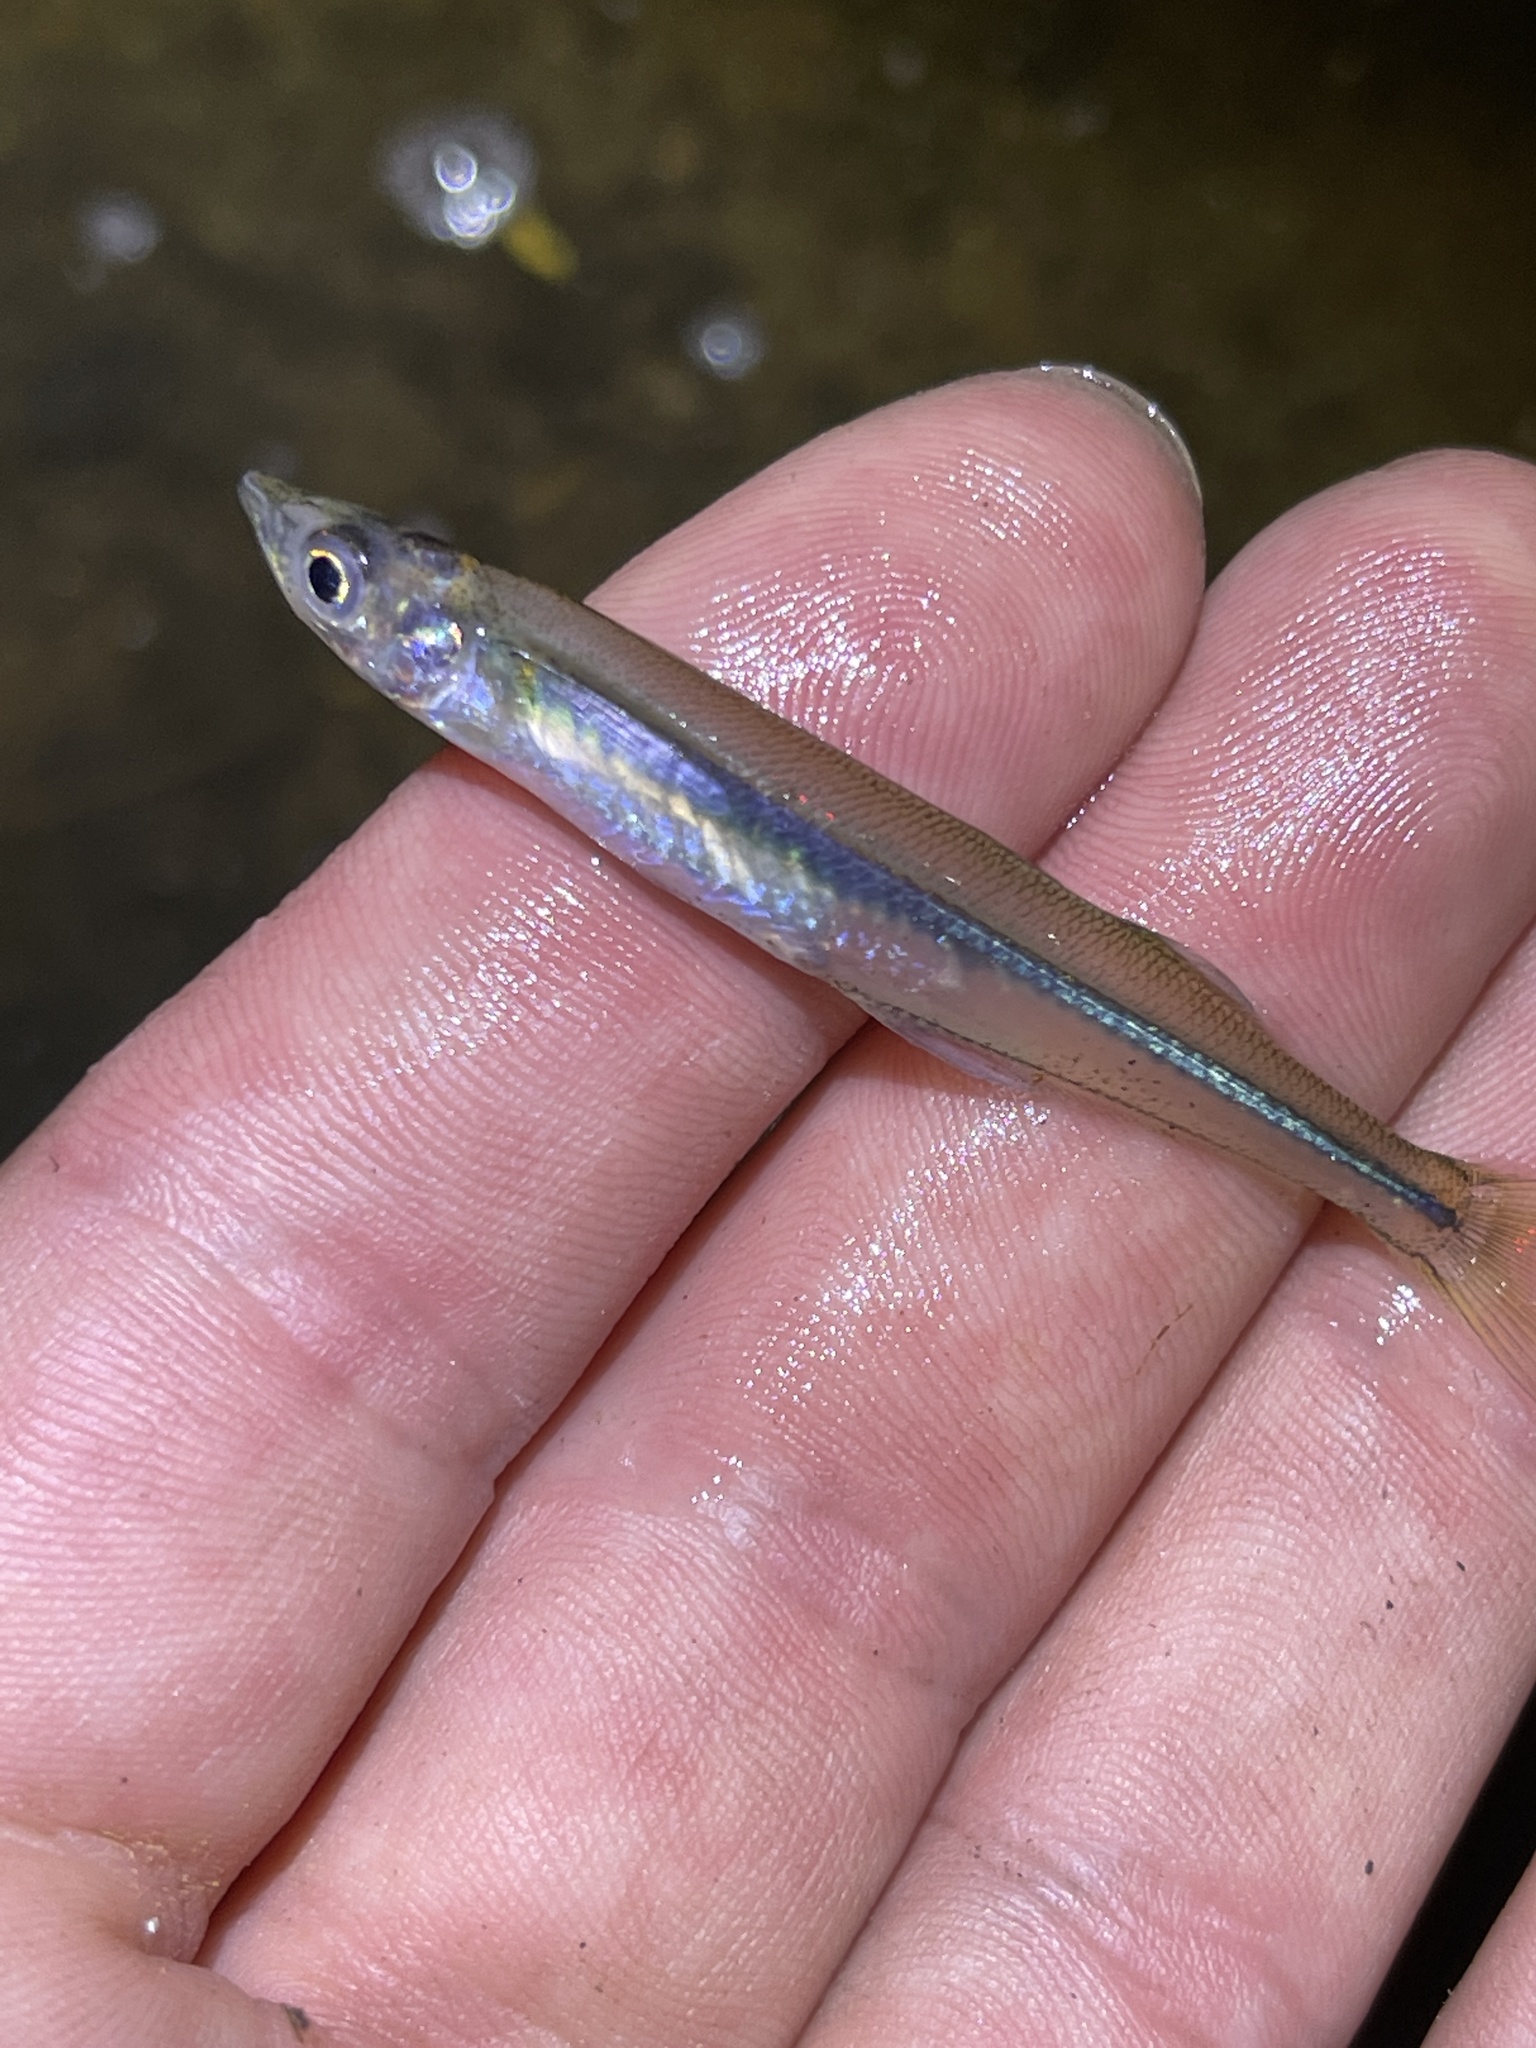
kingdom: Animalia
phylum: Chordata
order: Atheriniformes
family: Atherinopsidae
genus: Labidesthes
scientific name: Labidesthes sicculus
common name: Brook silverside
